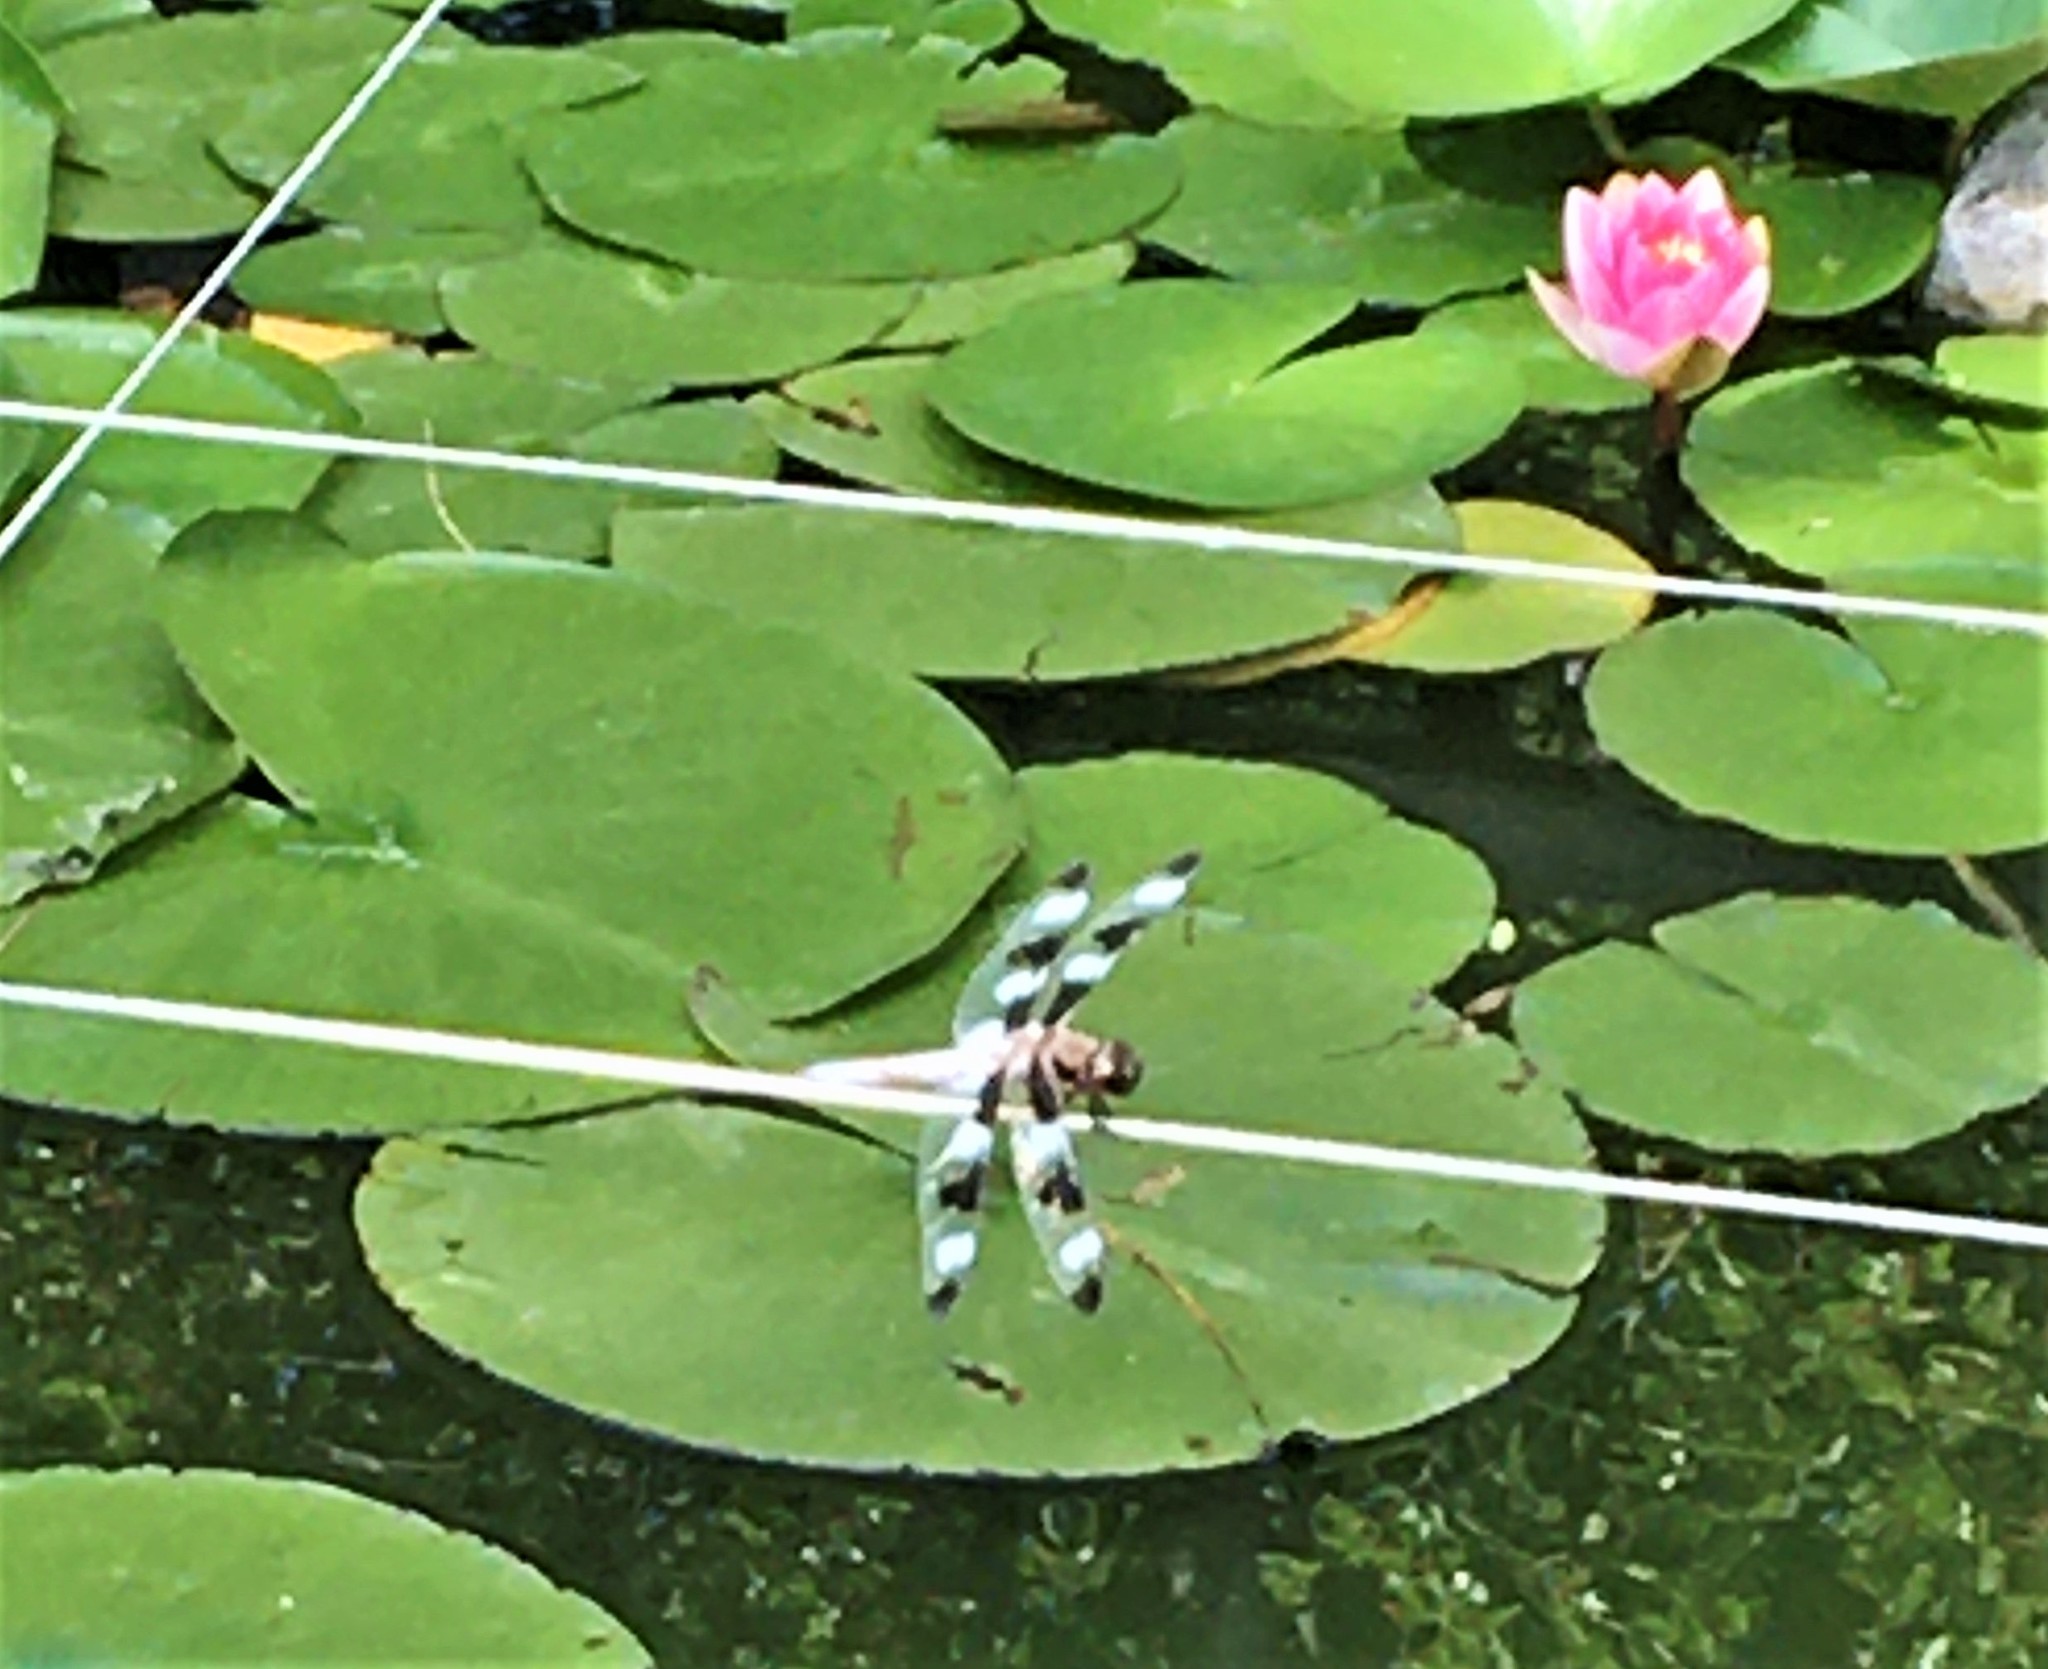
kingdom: Animalia
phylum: Arthropoda
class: Insecta
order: Odonata
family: Libellulidae
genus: Libellula
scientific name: Libellula pulchella
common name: Twelve-spotted skimmer
